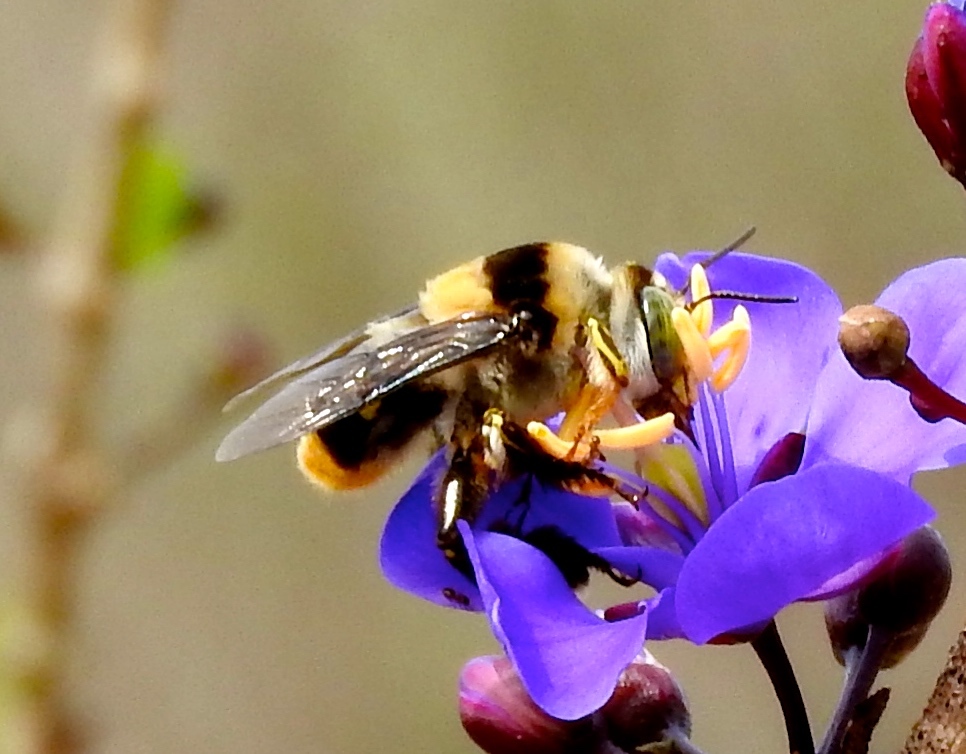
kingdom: Animalia
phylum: Arthropoda
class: Insecta
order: Hymenoptera
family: Apidae
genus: Centris
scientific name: Centris flavofasciata
